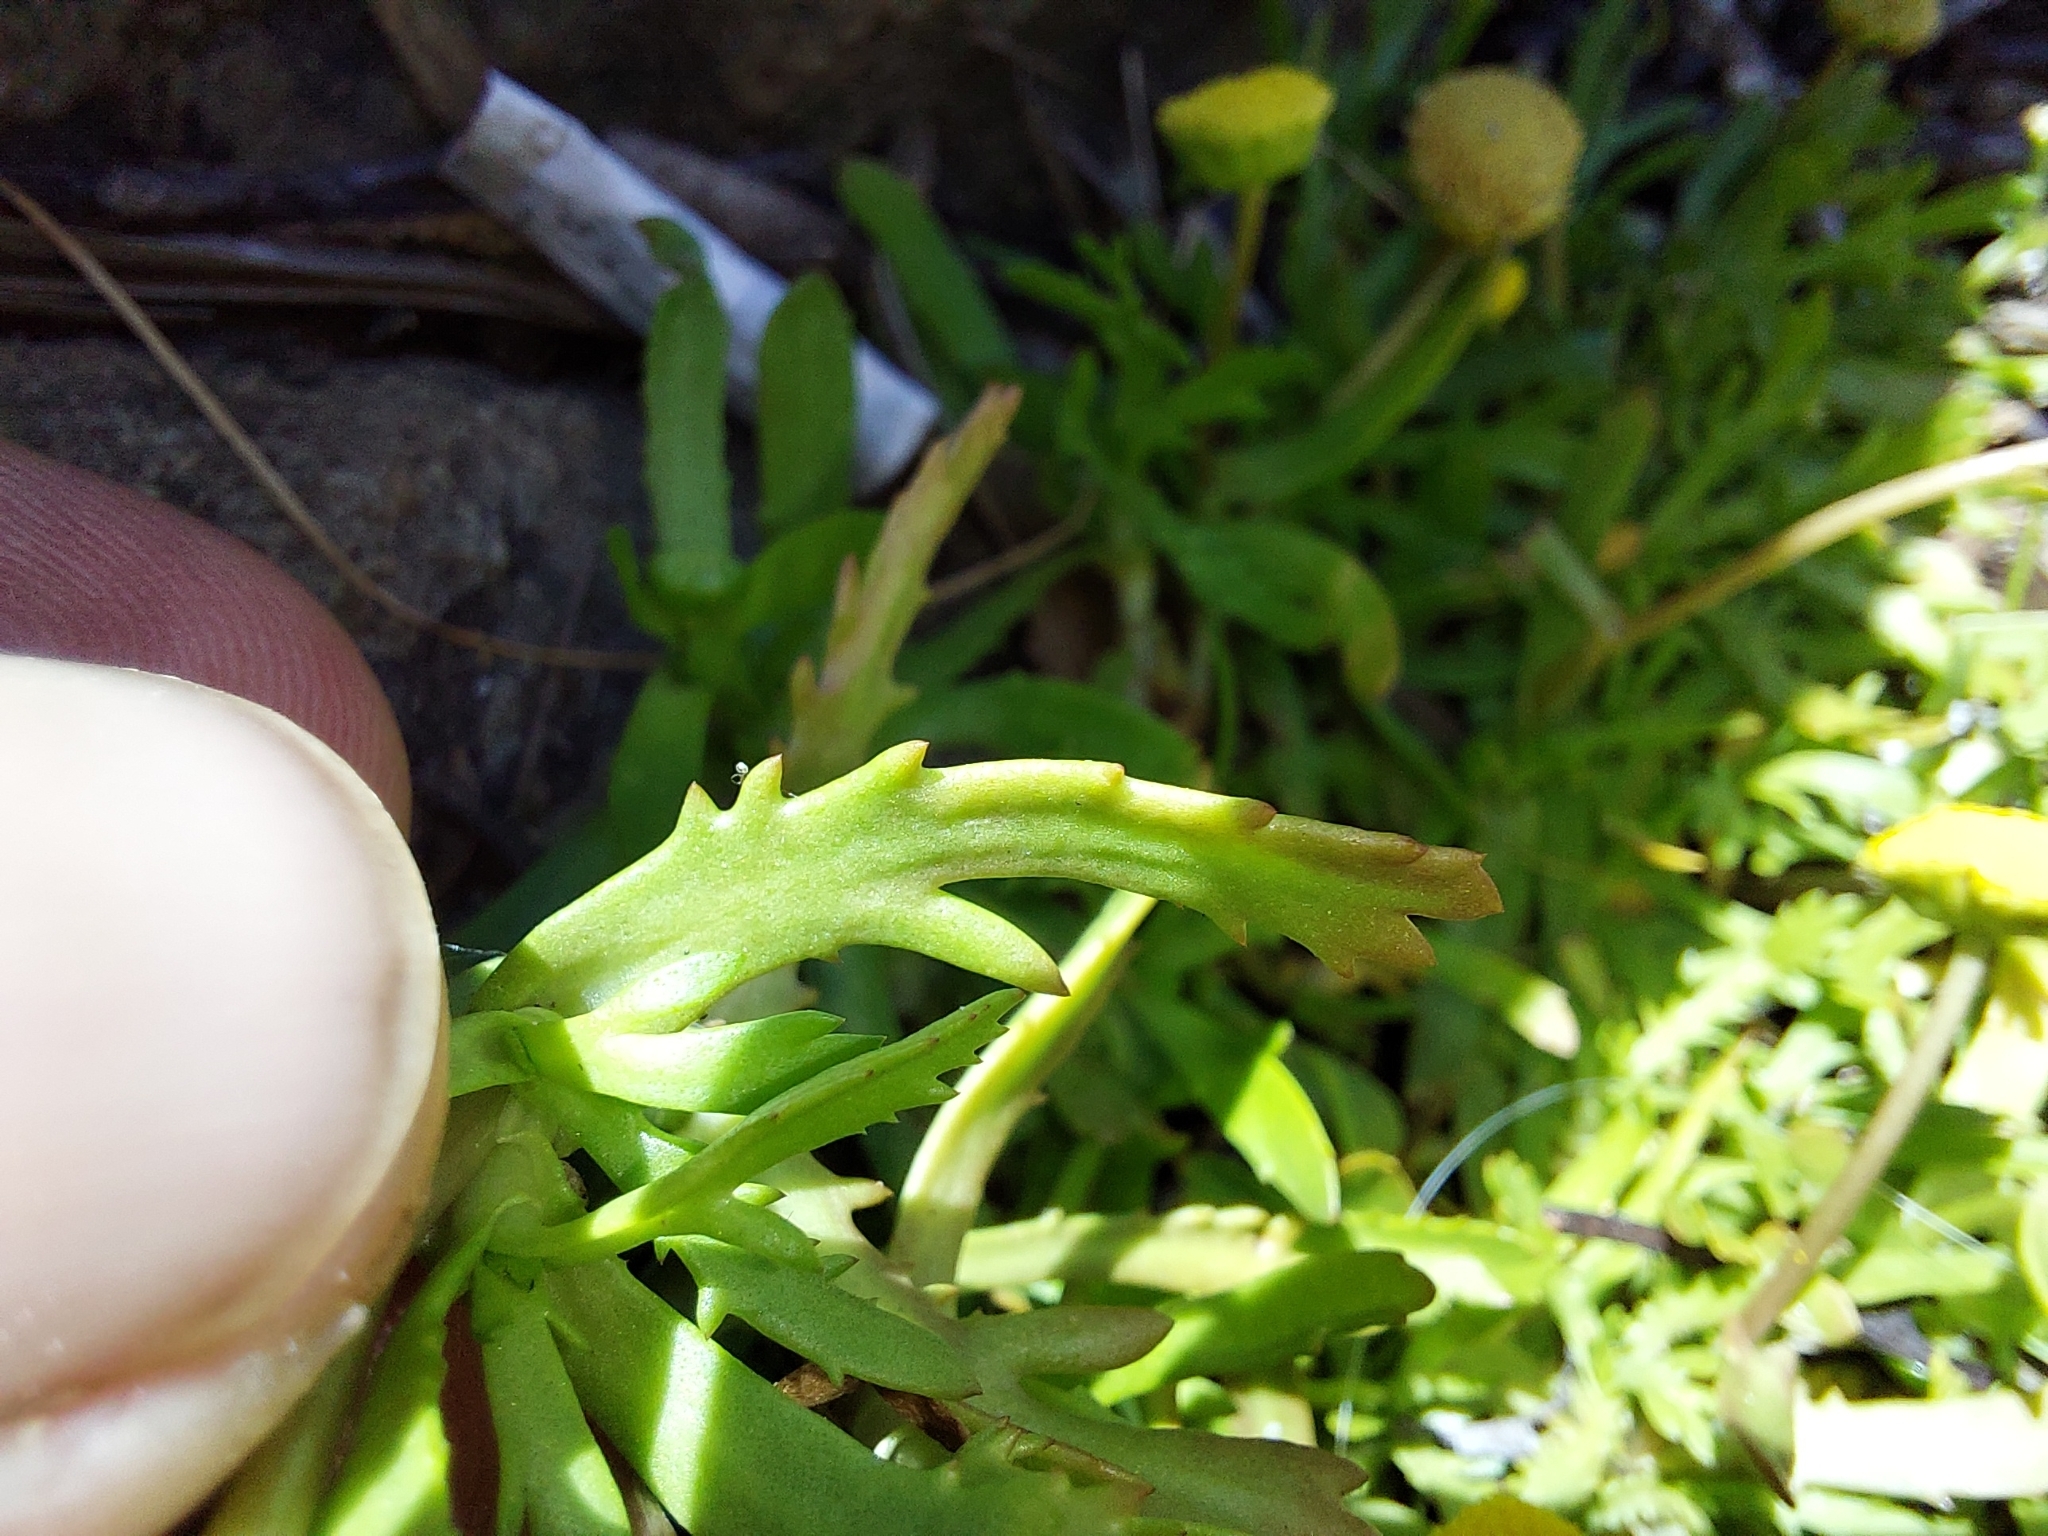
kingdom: Plantae
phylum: Tracheophyta
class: Magnoliopsida
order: Asterales
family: Asteraceae
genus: Cotula
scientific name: Cotula coronopifolia
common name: Buttonweed
